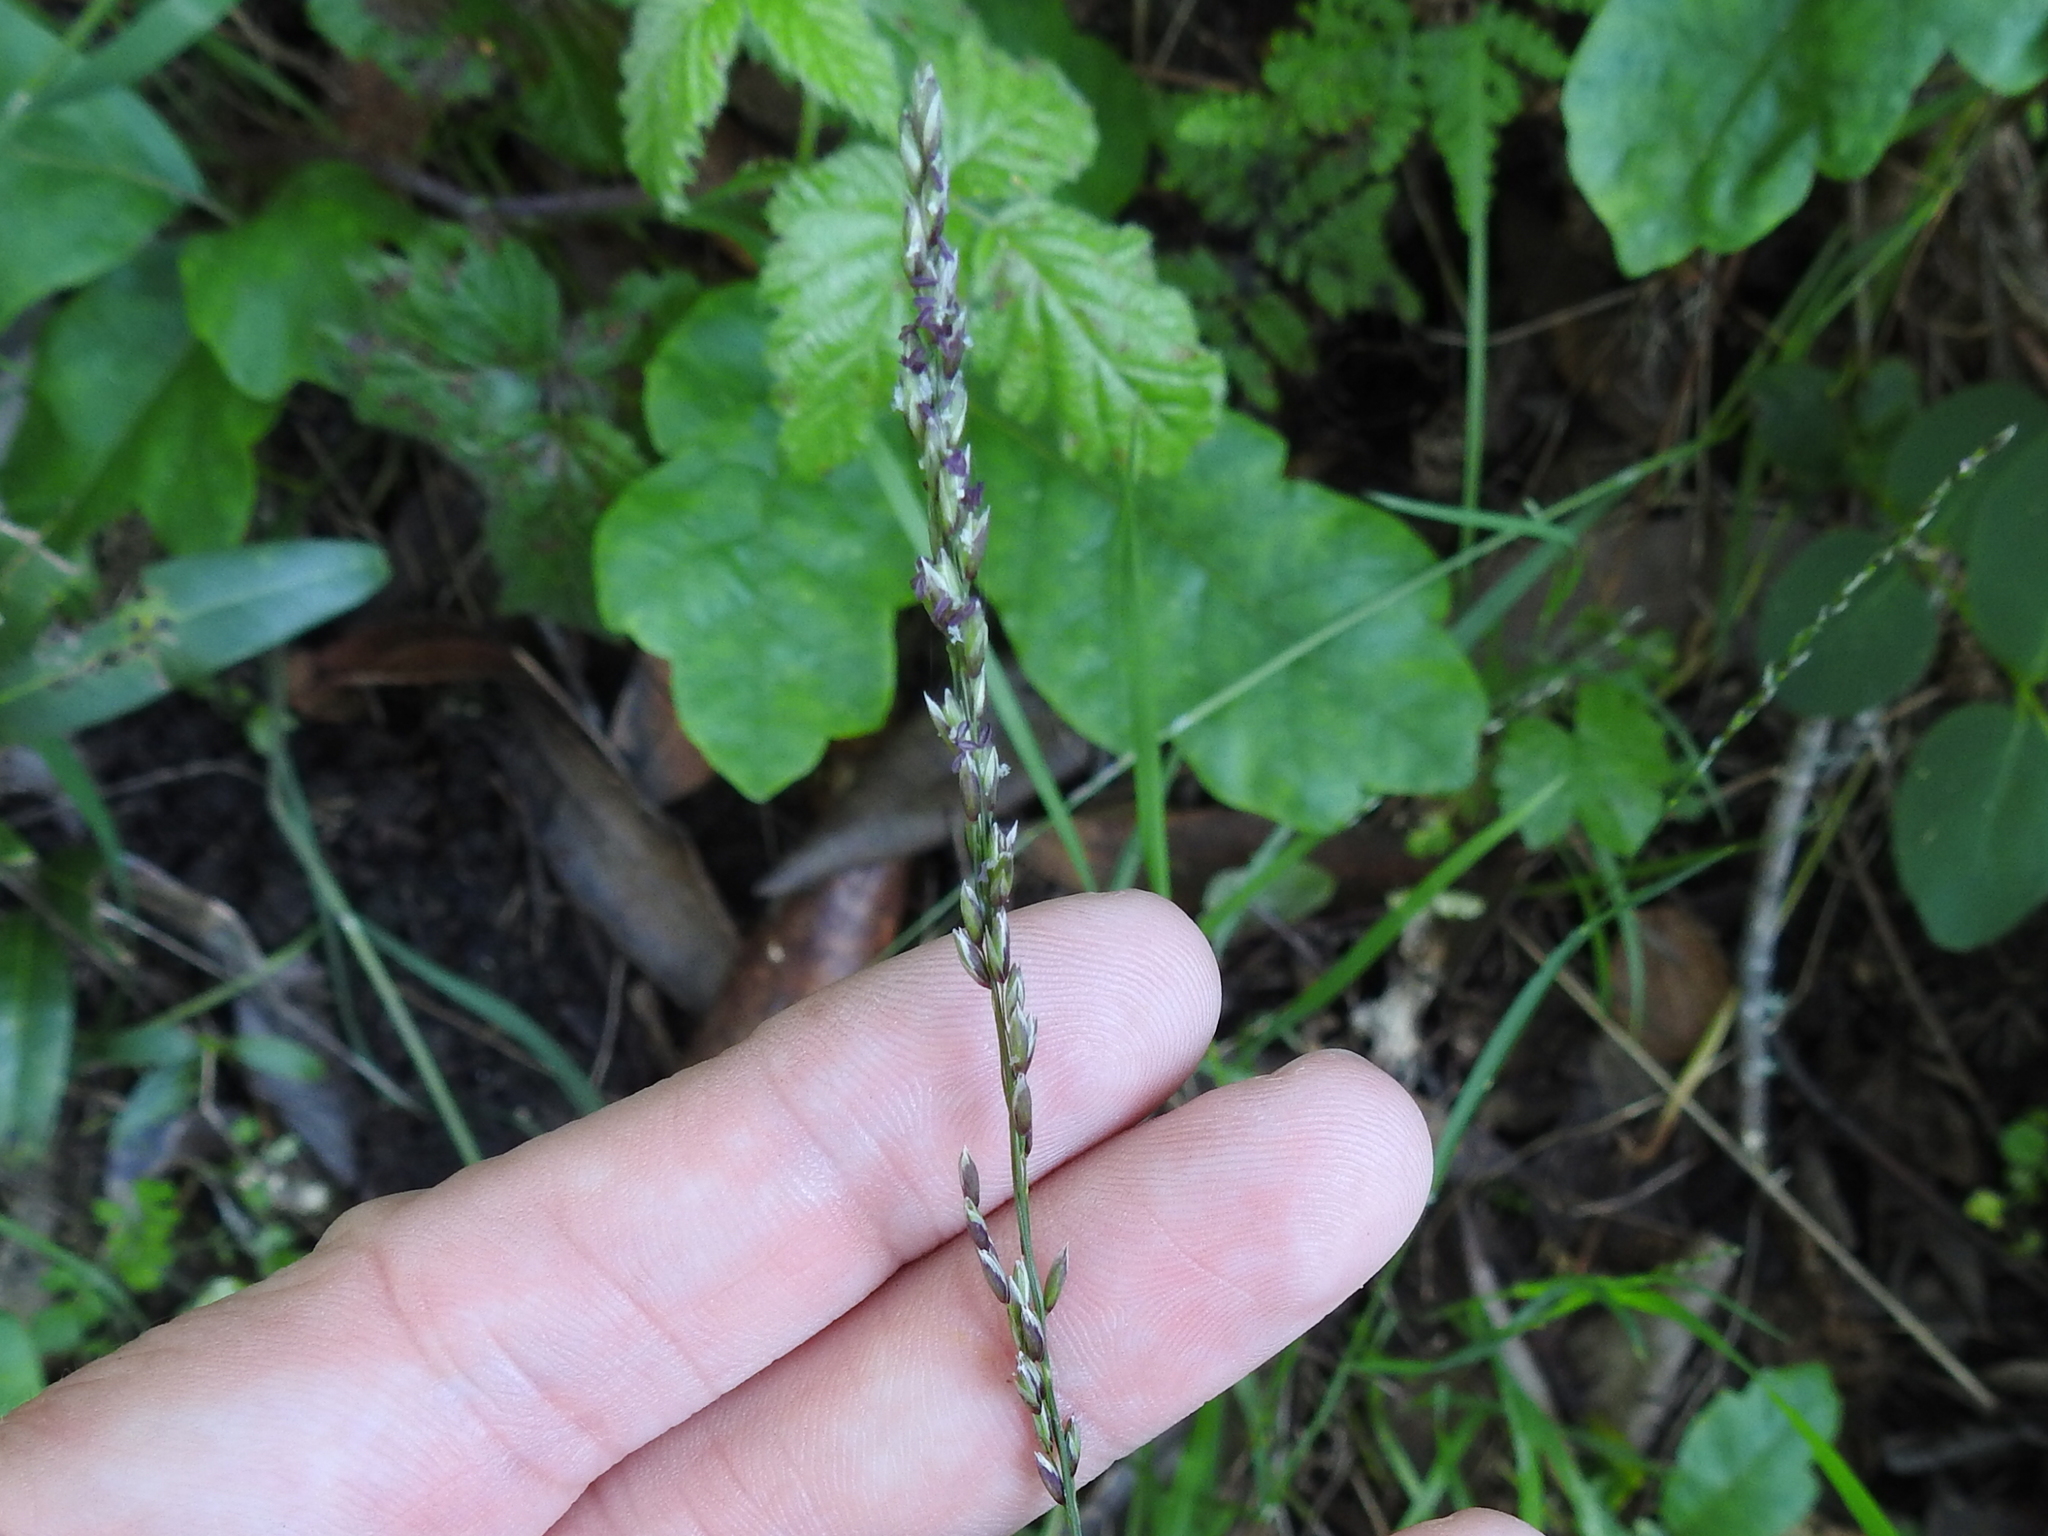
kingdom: Plantae
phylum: Tracheophyta
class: Liliopsida
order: Poales
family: Poaceae
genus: Melica
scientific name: Melica torreyana
